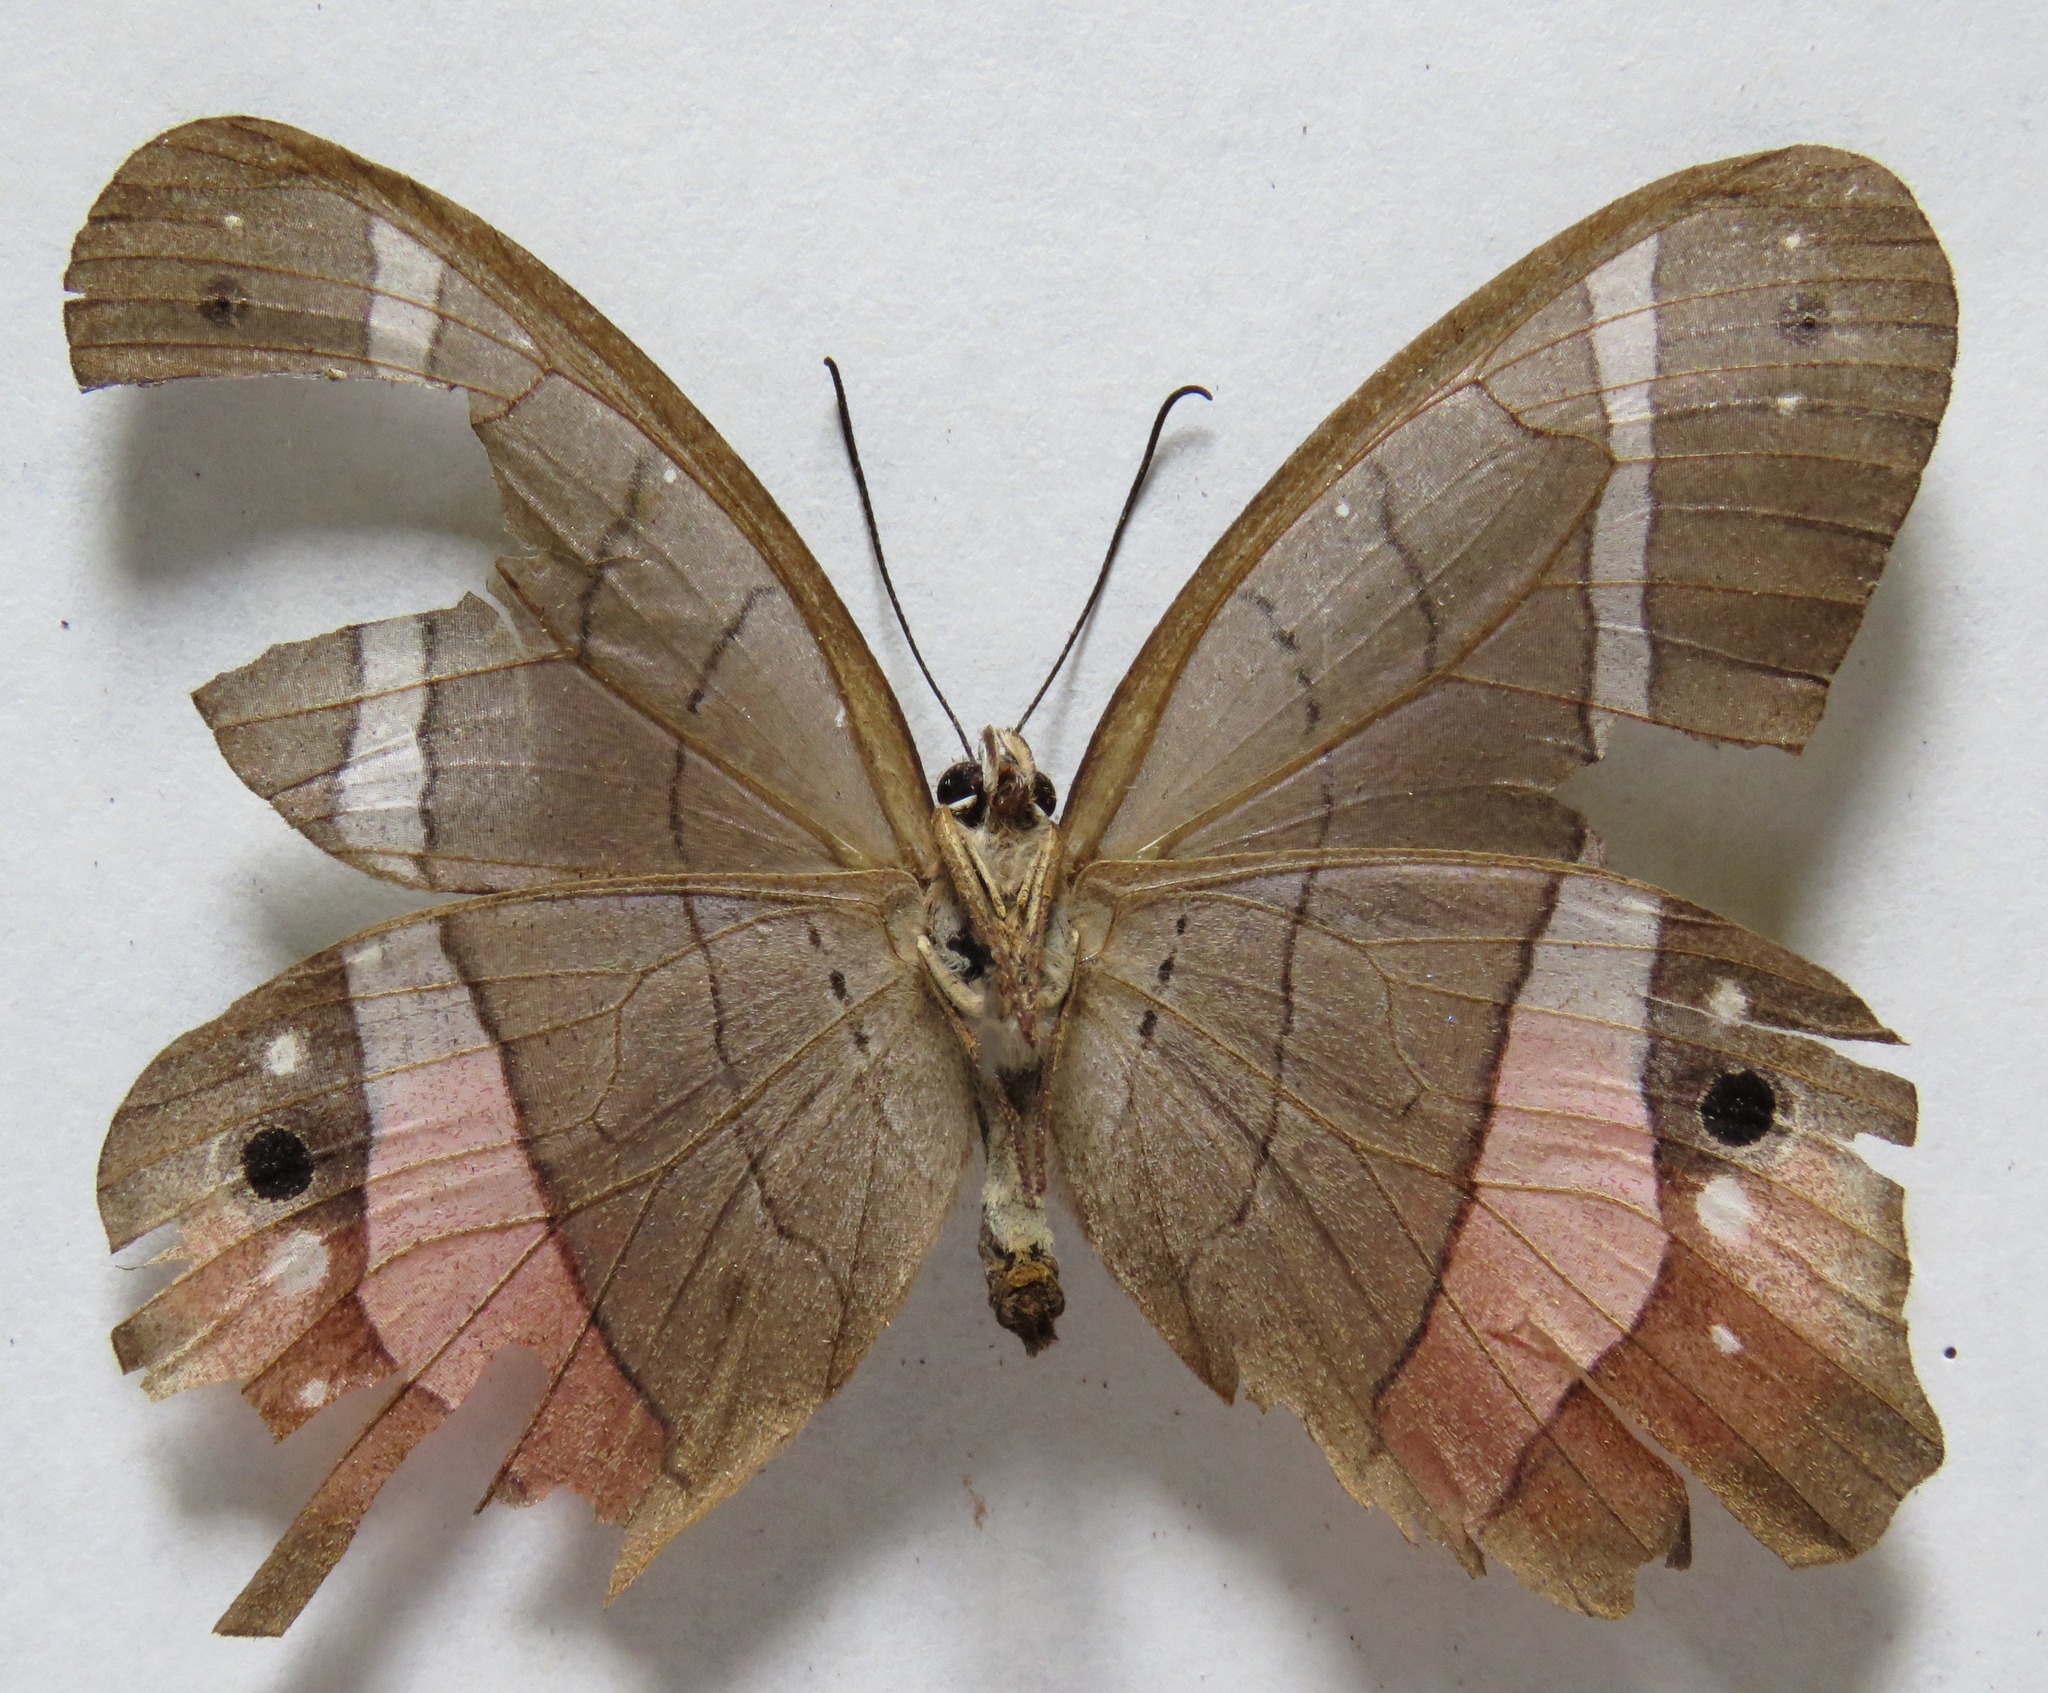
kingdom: Animalia
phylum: Arthropoda
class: Insecta
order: Lepidoptera
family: Nymphalidae
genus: Pierella
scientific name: Pierella helvina
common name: Red-washed satyr
